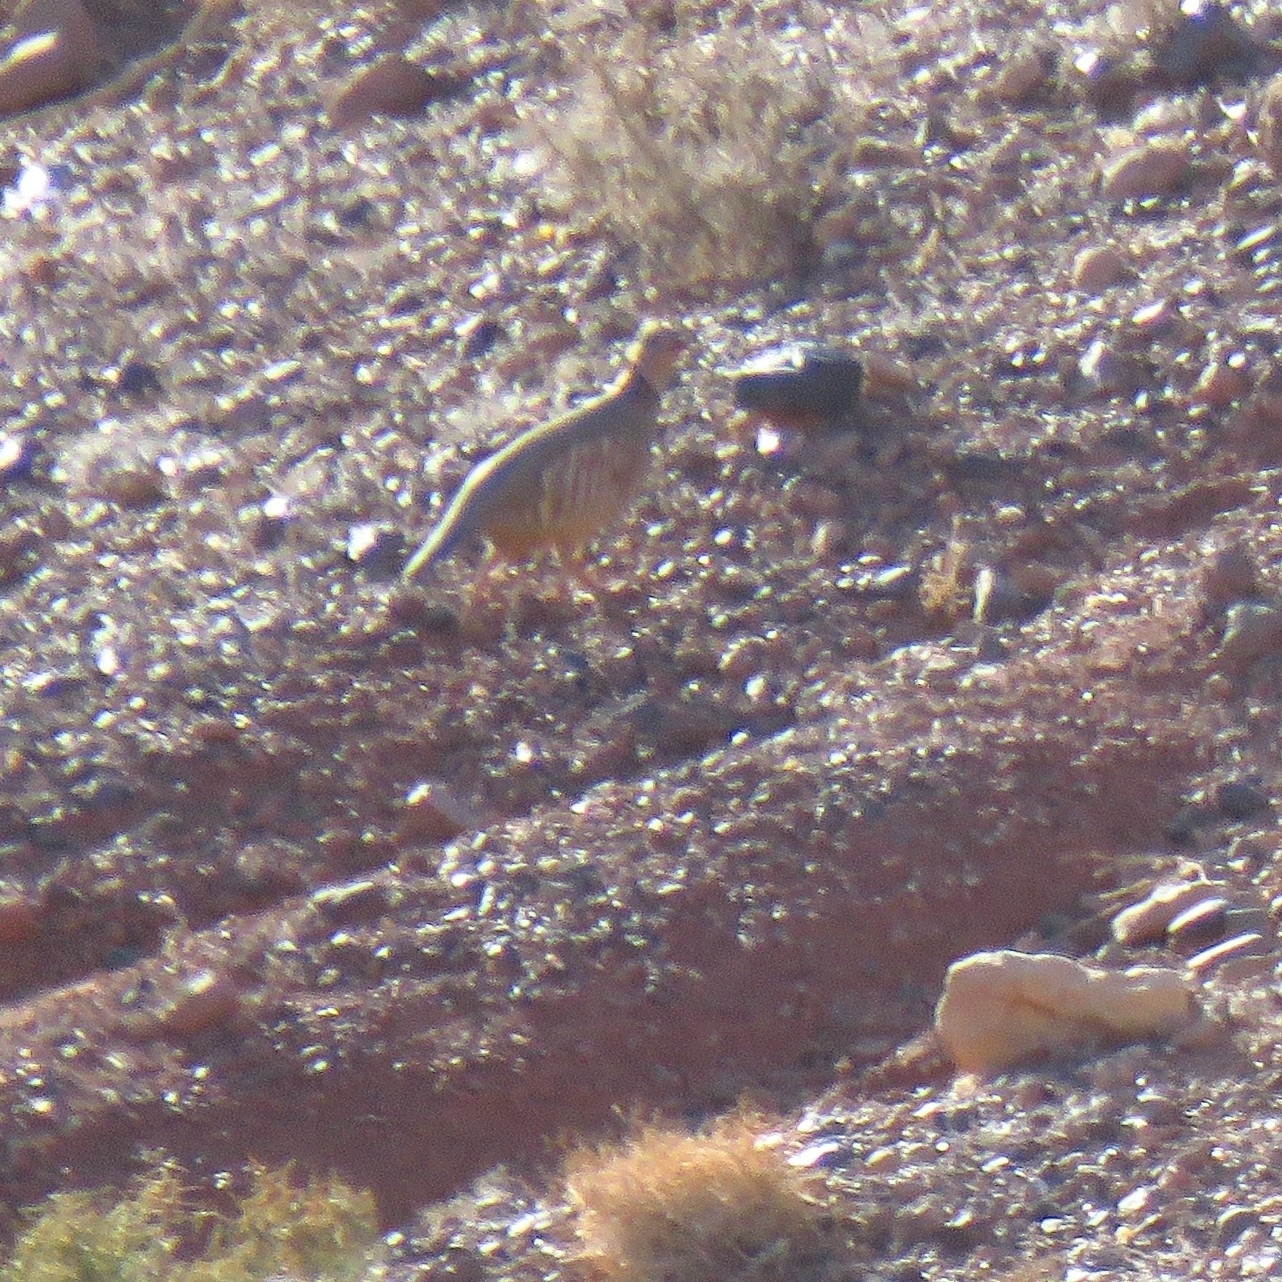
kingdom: Animalia
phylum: Chordata
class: Aves
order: Galliformes
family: Phasianidae
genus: Alectoris
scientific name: Alectoris barbara
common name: Barbary partridge
